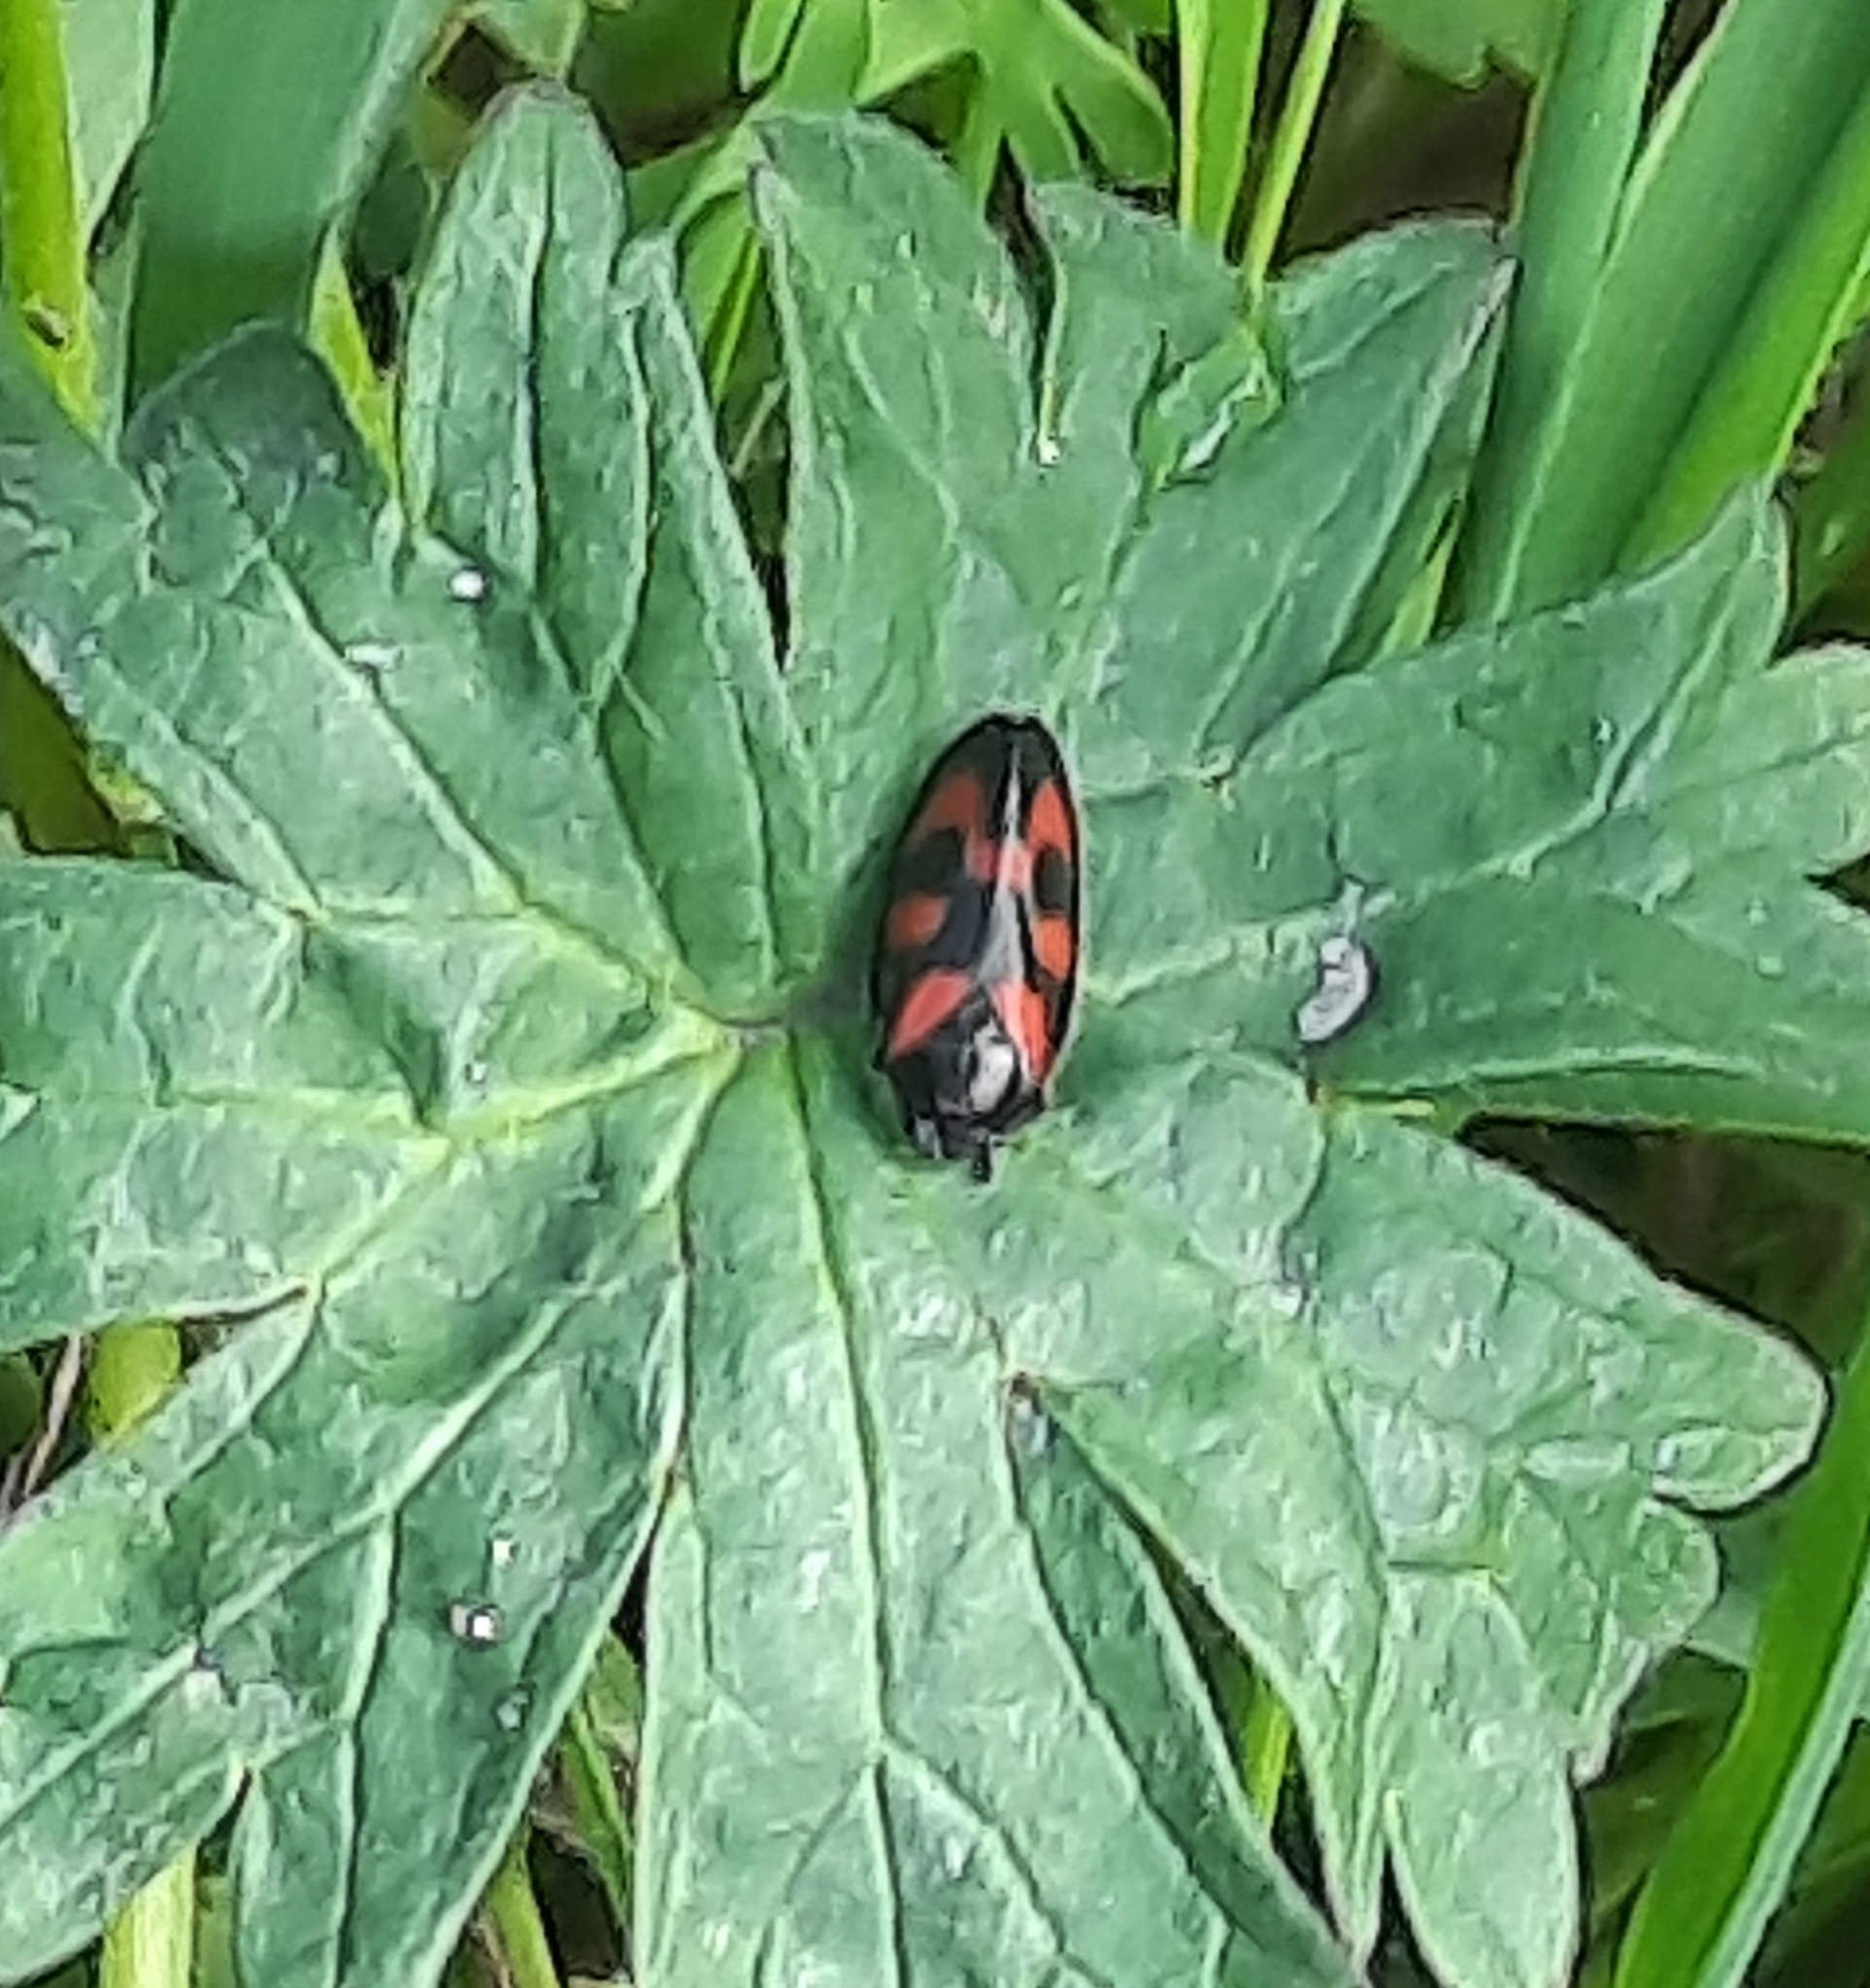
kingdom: Animalia
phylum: Arthropoda
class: Insecta
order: Hemiptera
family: Cercopidae
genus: Cercopis
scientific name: Cercopis vulnerata
